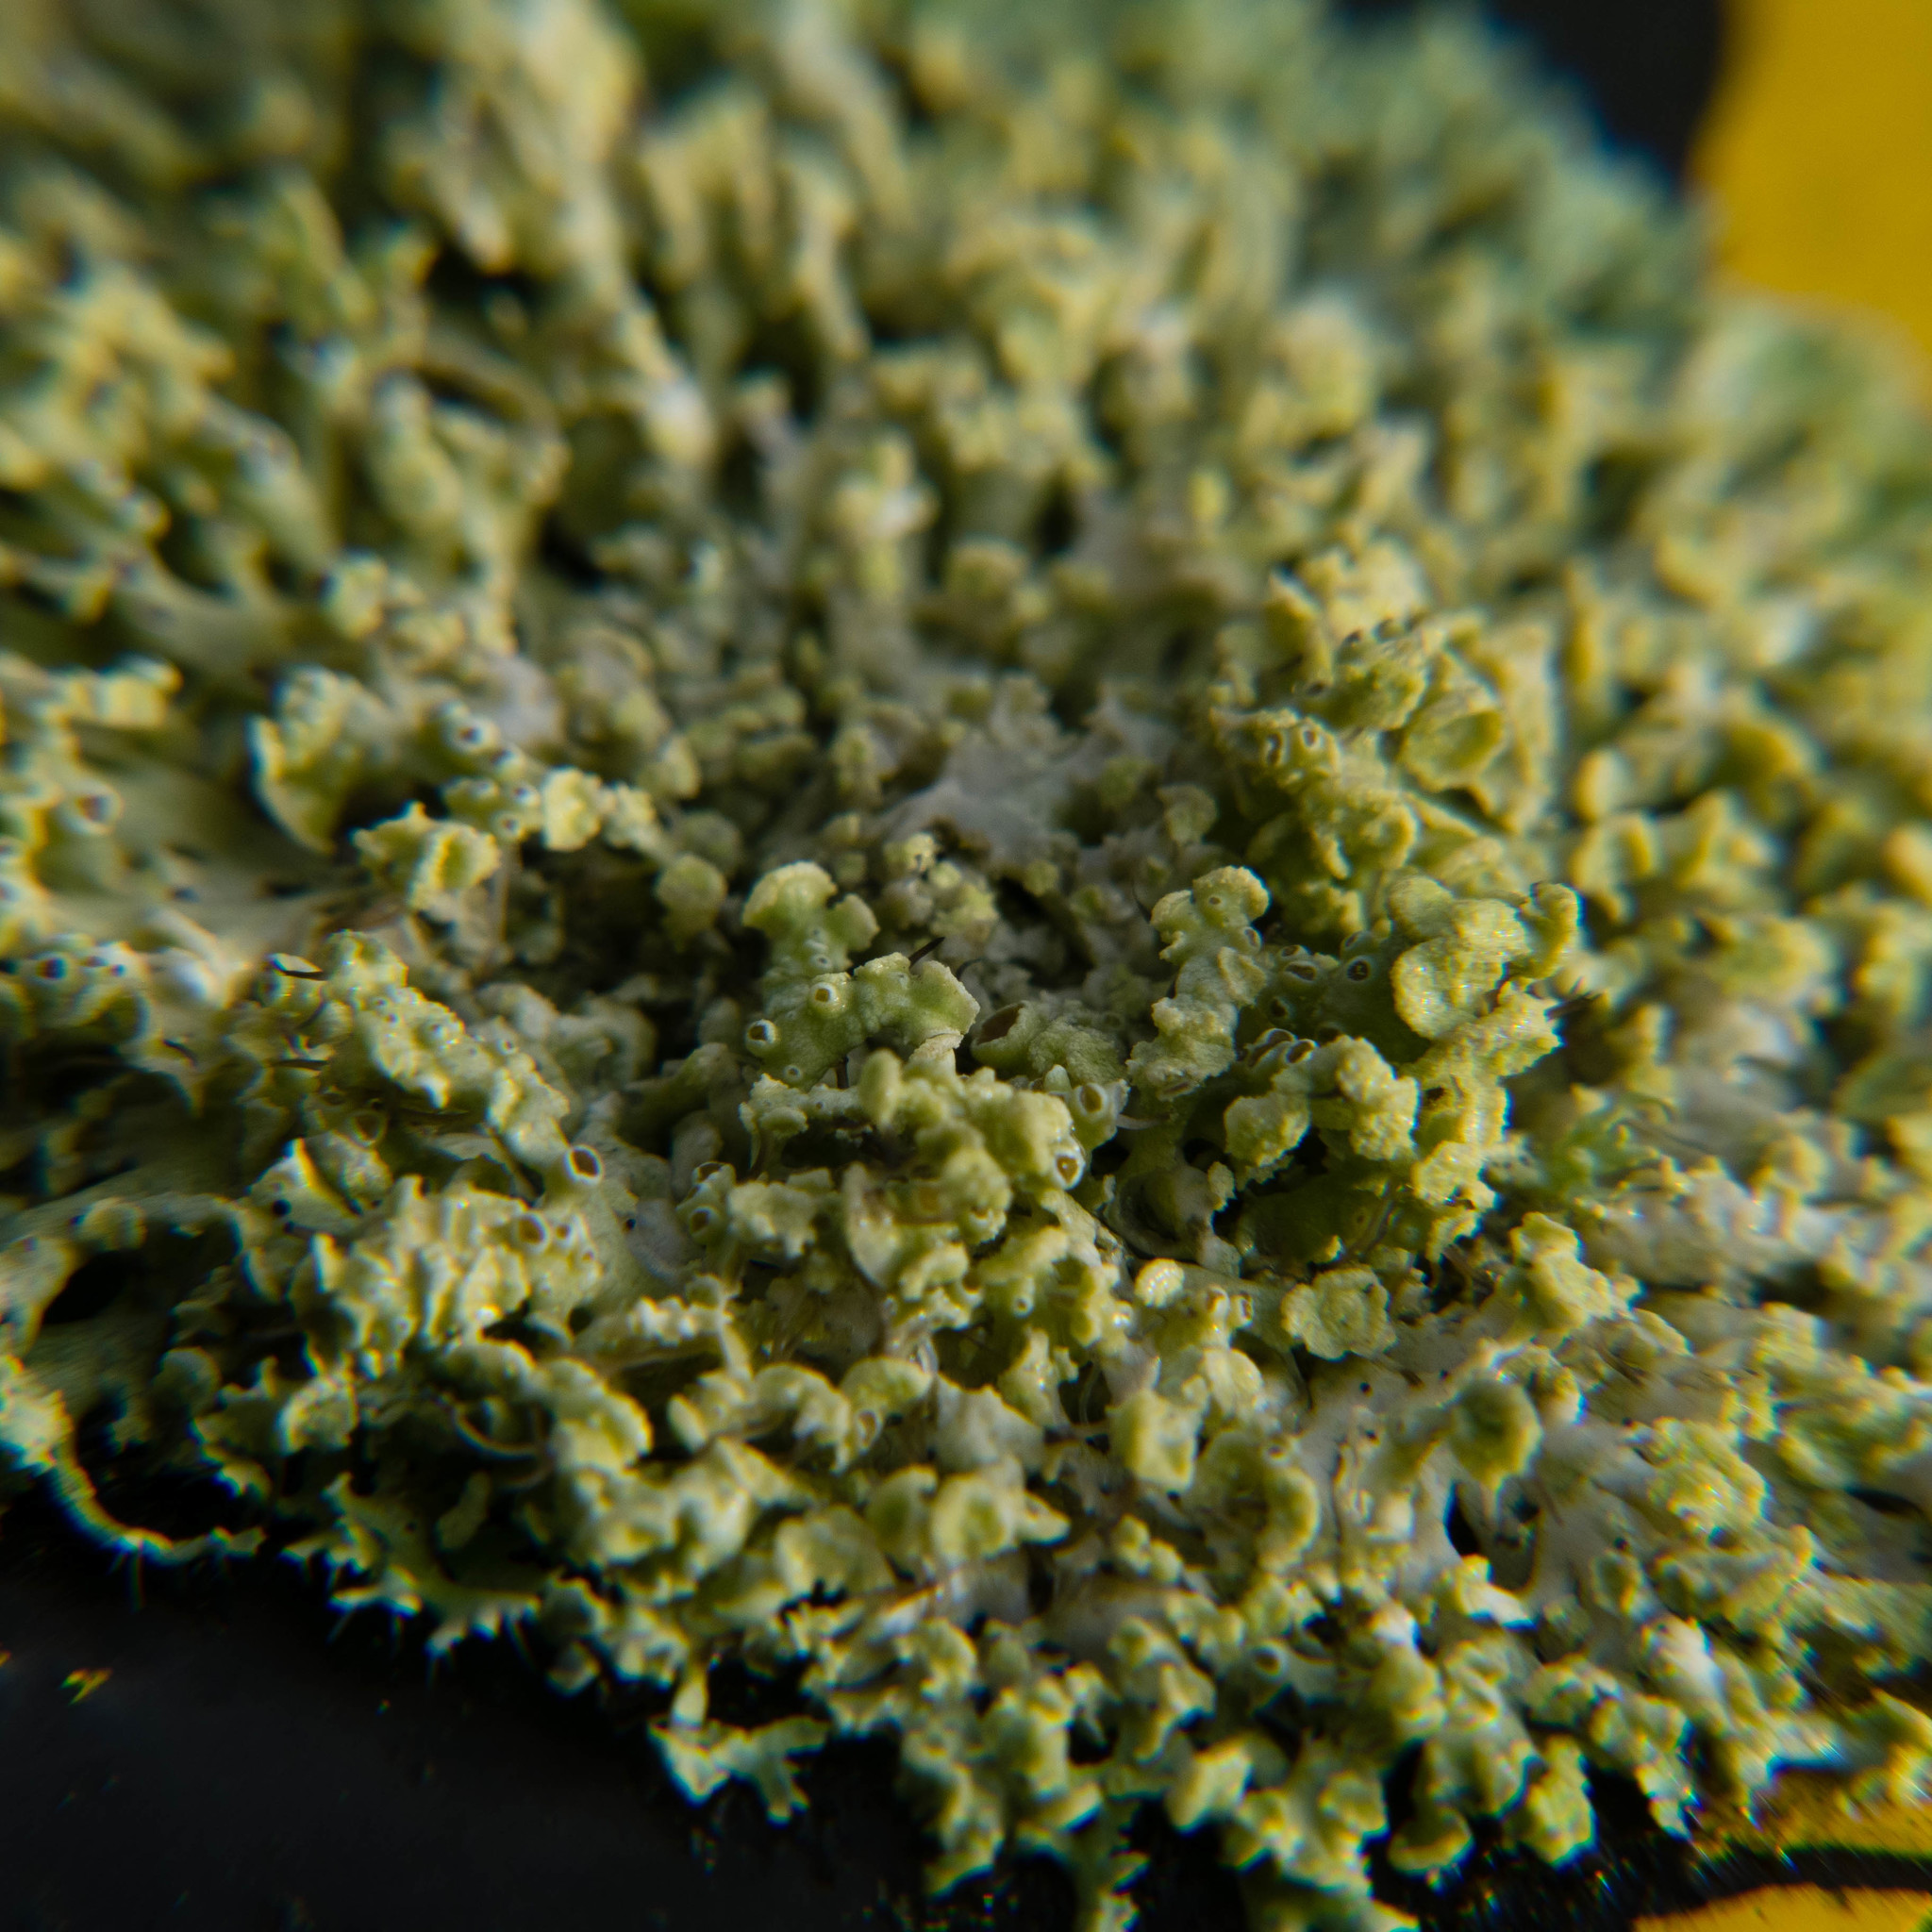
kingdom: Fungi
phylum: Ascomycota
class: Lecanoromycetes
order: Caliciales
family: Physciaceae
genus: Physcia
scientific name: Physcia tenella
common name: Fringed rosette lichen
